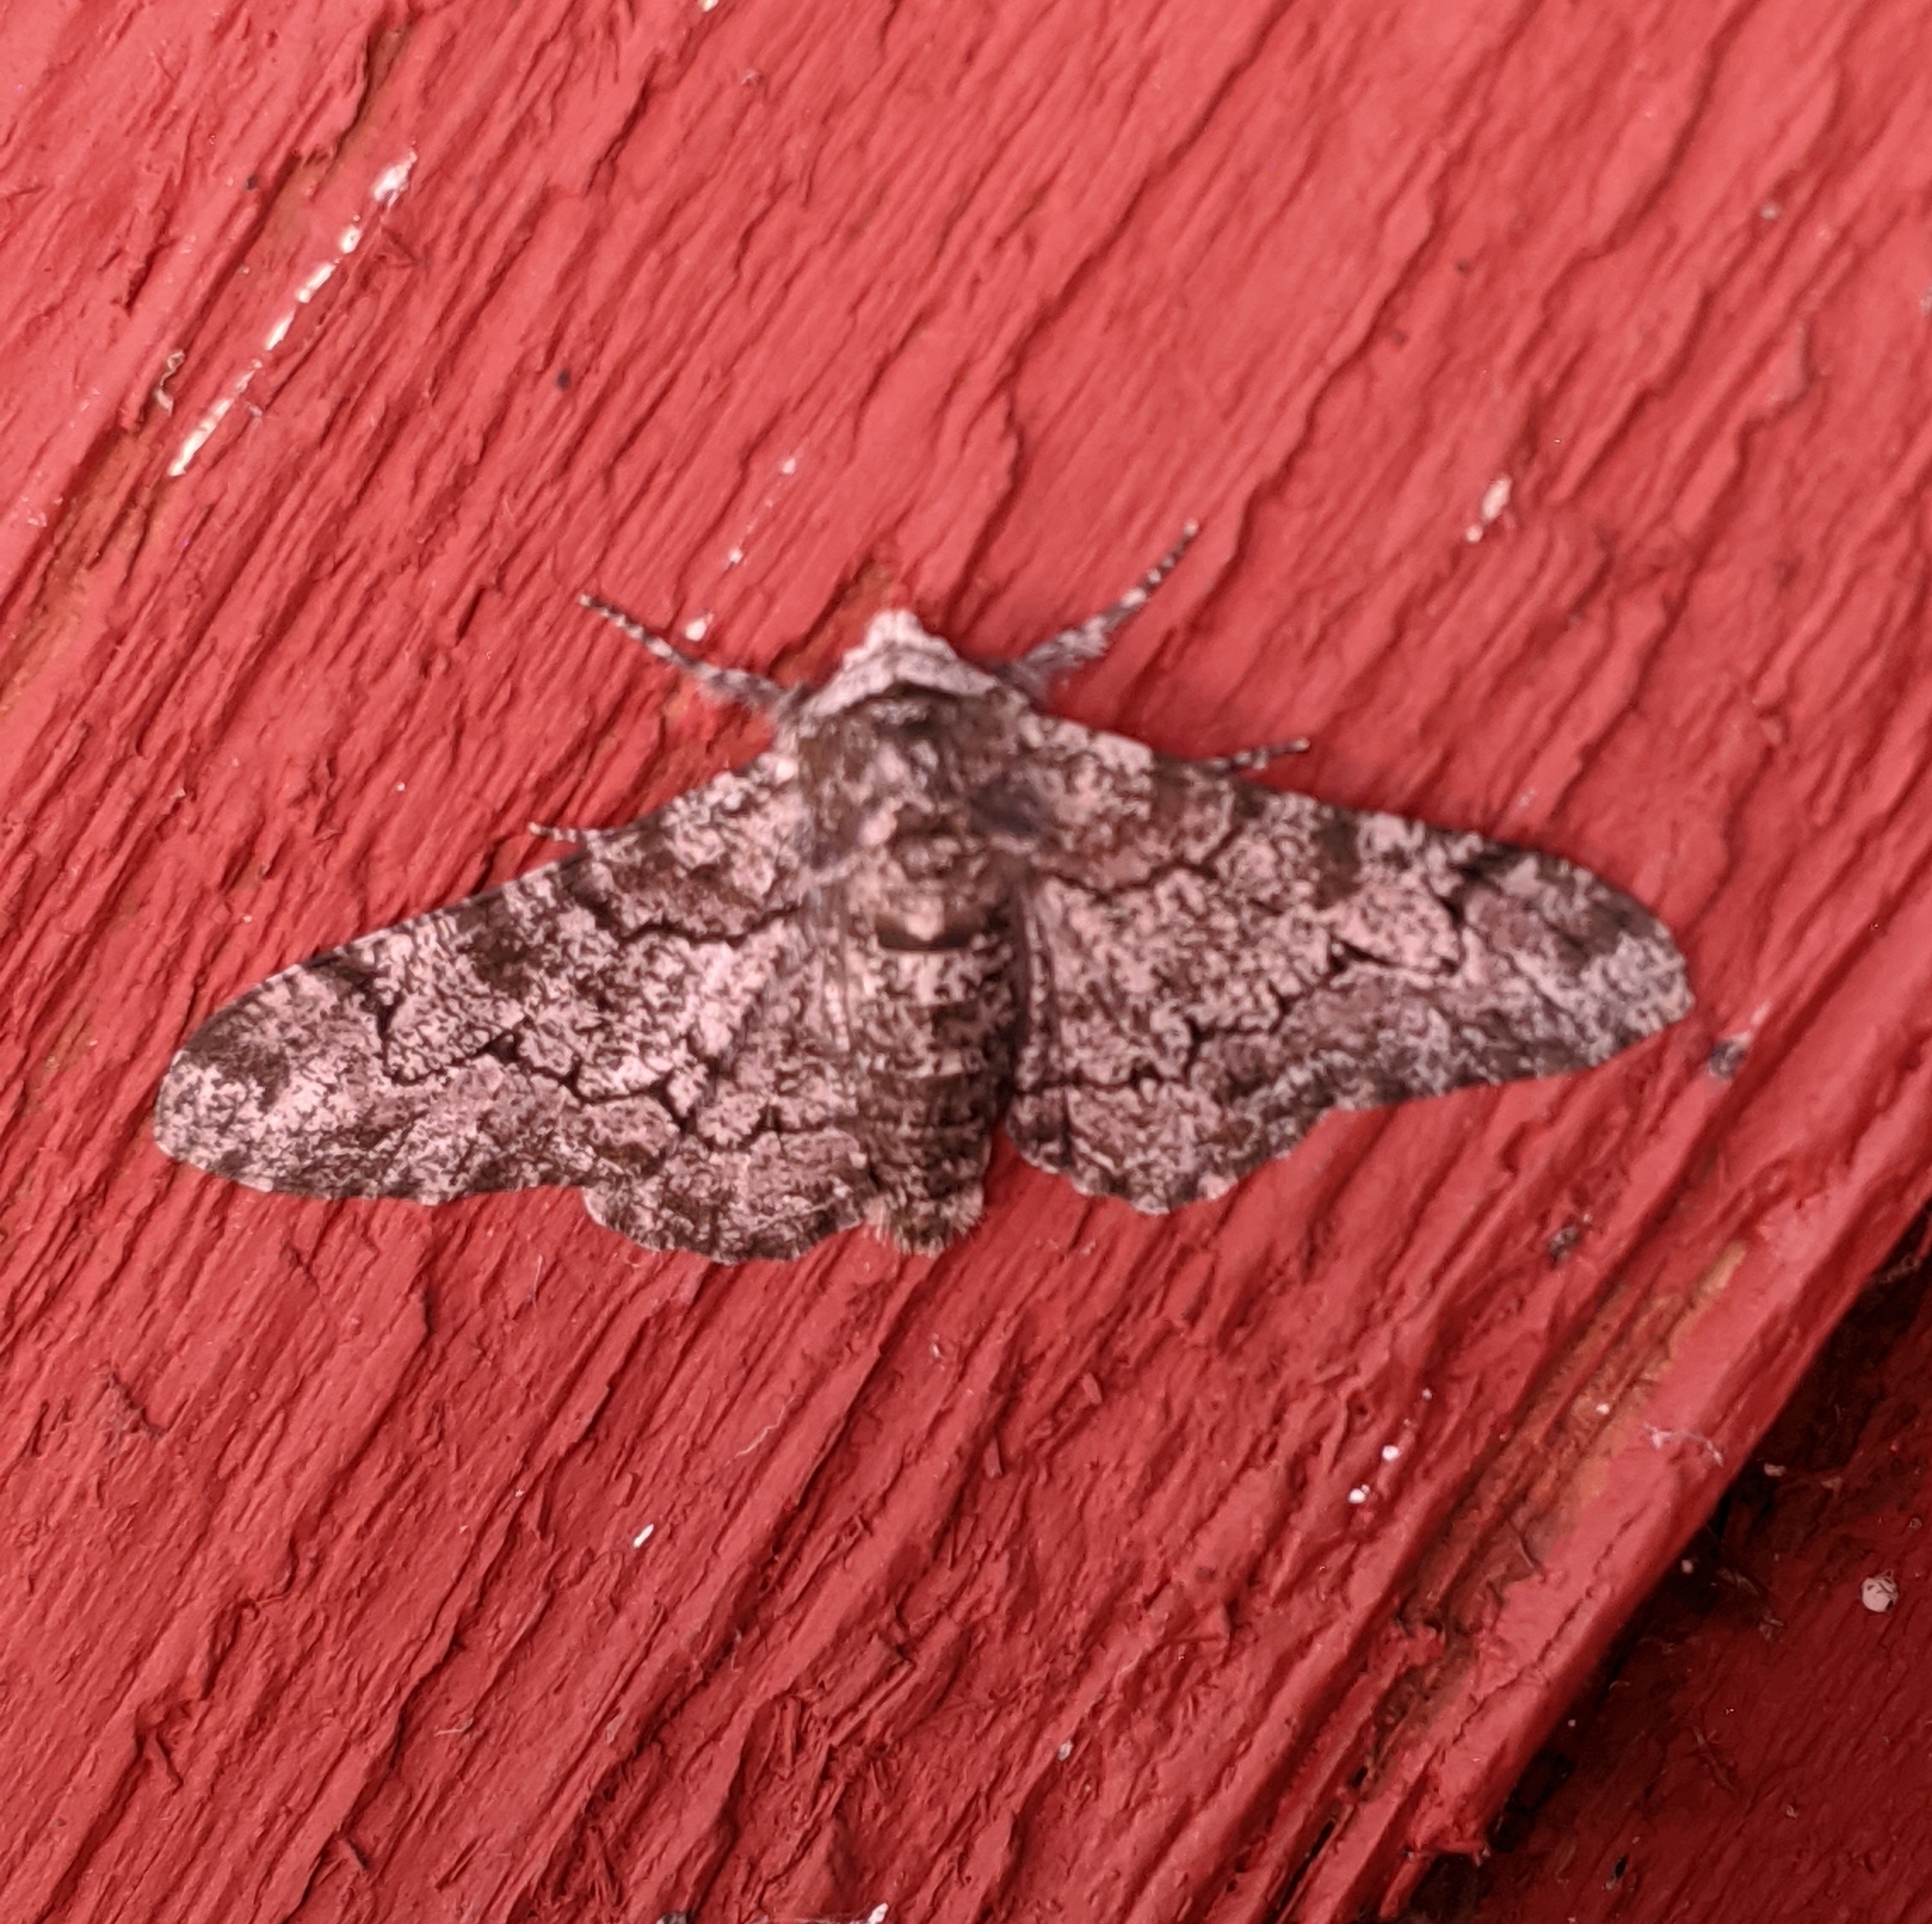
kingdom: Animalia
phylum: Arthropoda
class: Insecta
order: Lepidoptera
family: Geometridae
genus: Biston
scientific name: Biston betularia
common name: Peppered moth
